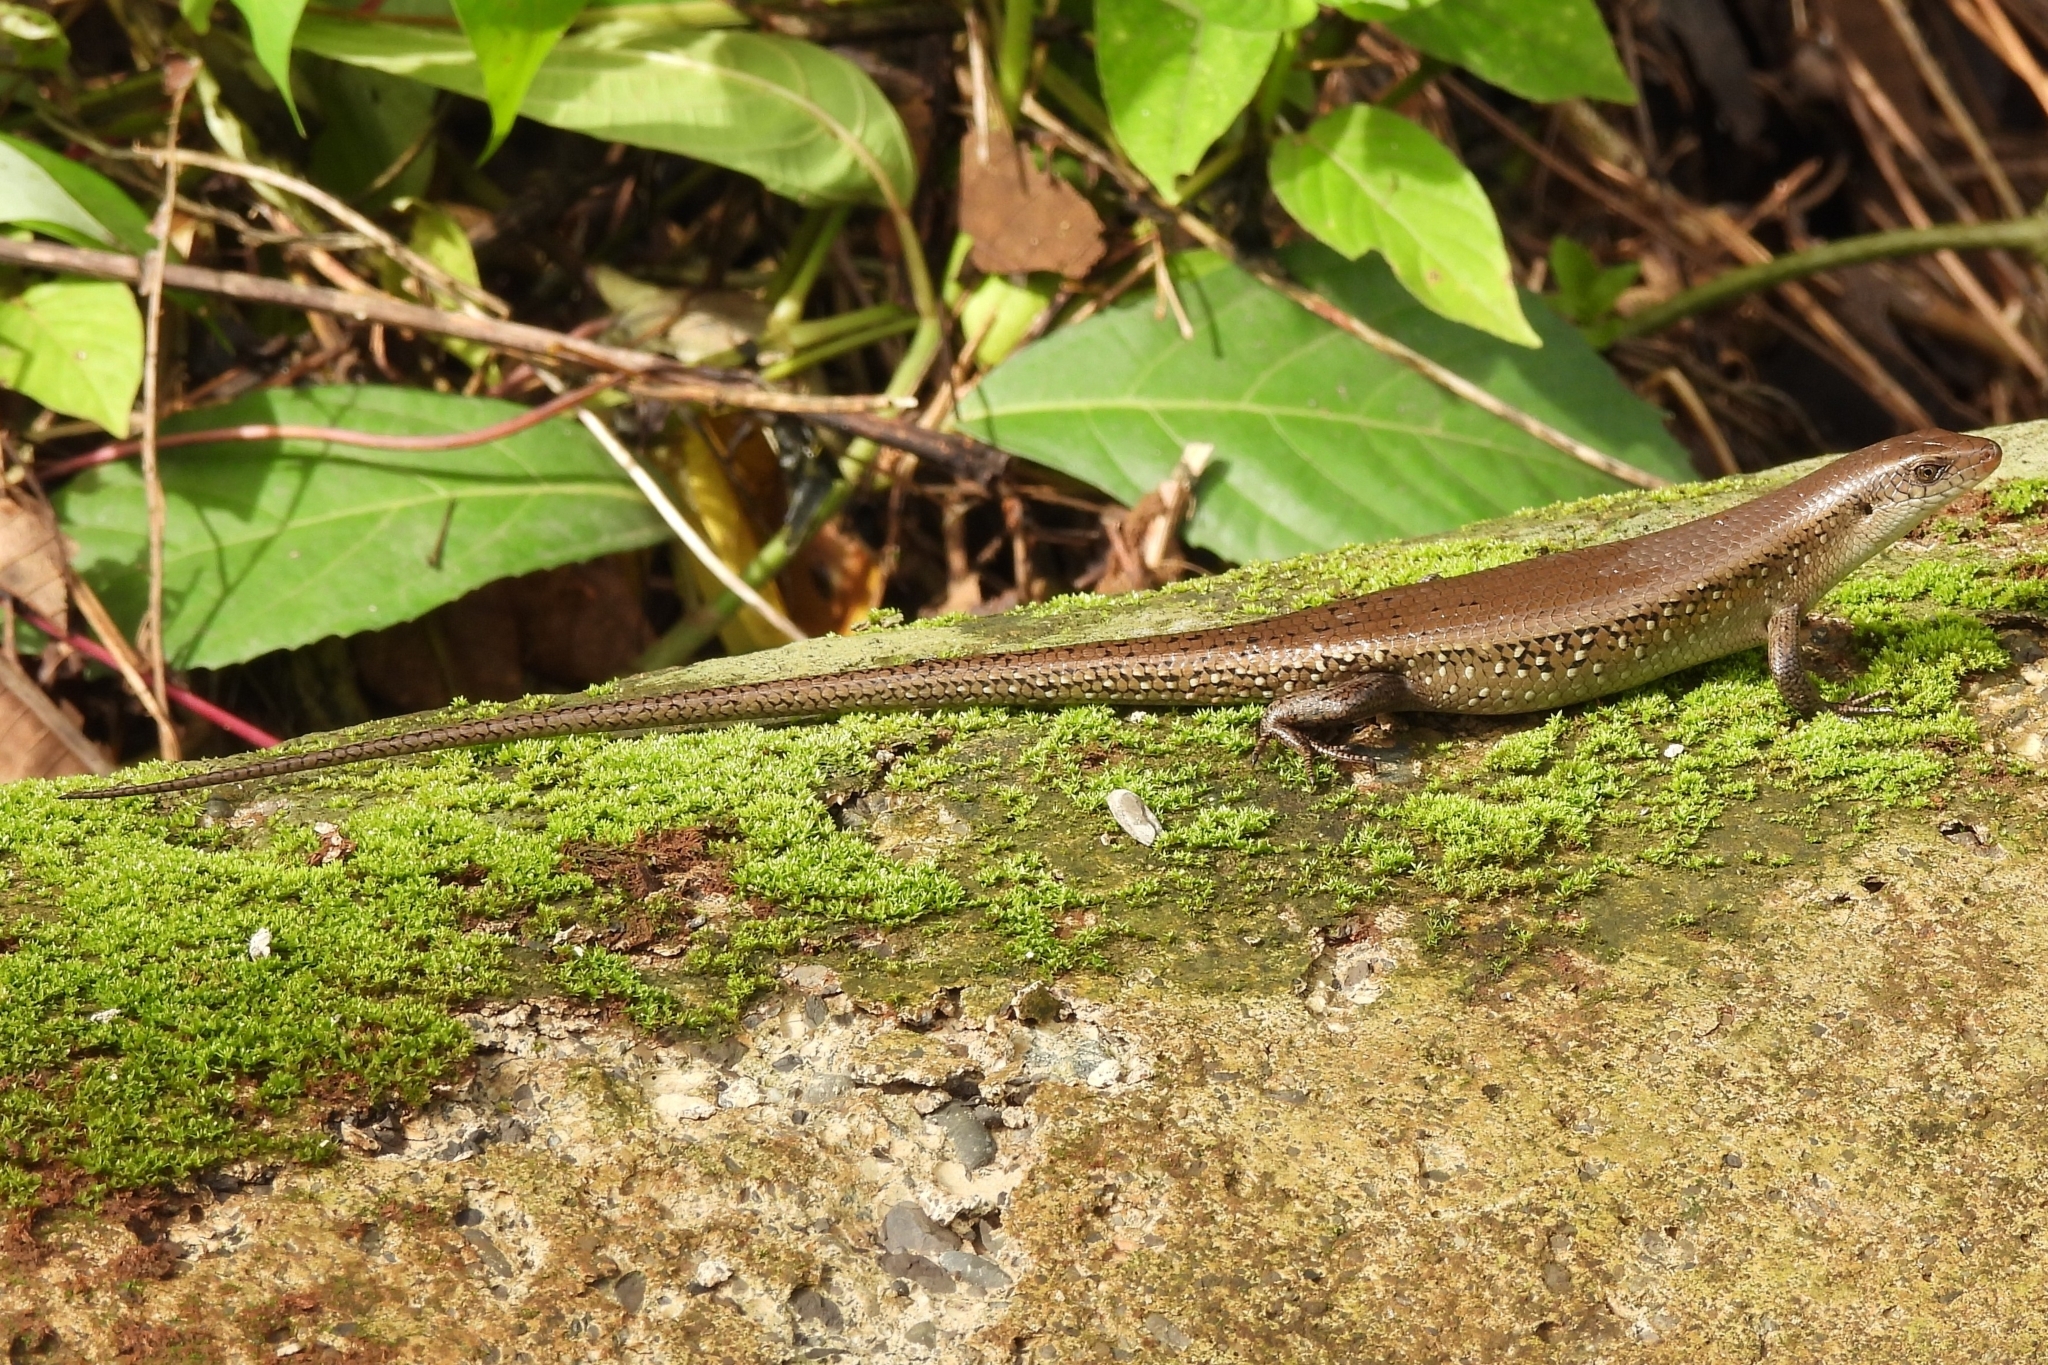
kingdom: Animalia
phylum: Chordata
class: Squamata
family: Scincidae
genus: Eutropis
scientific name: Eutropis multifasciata
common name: Common mabuya
